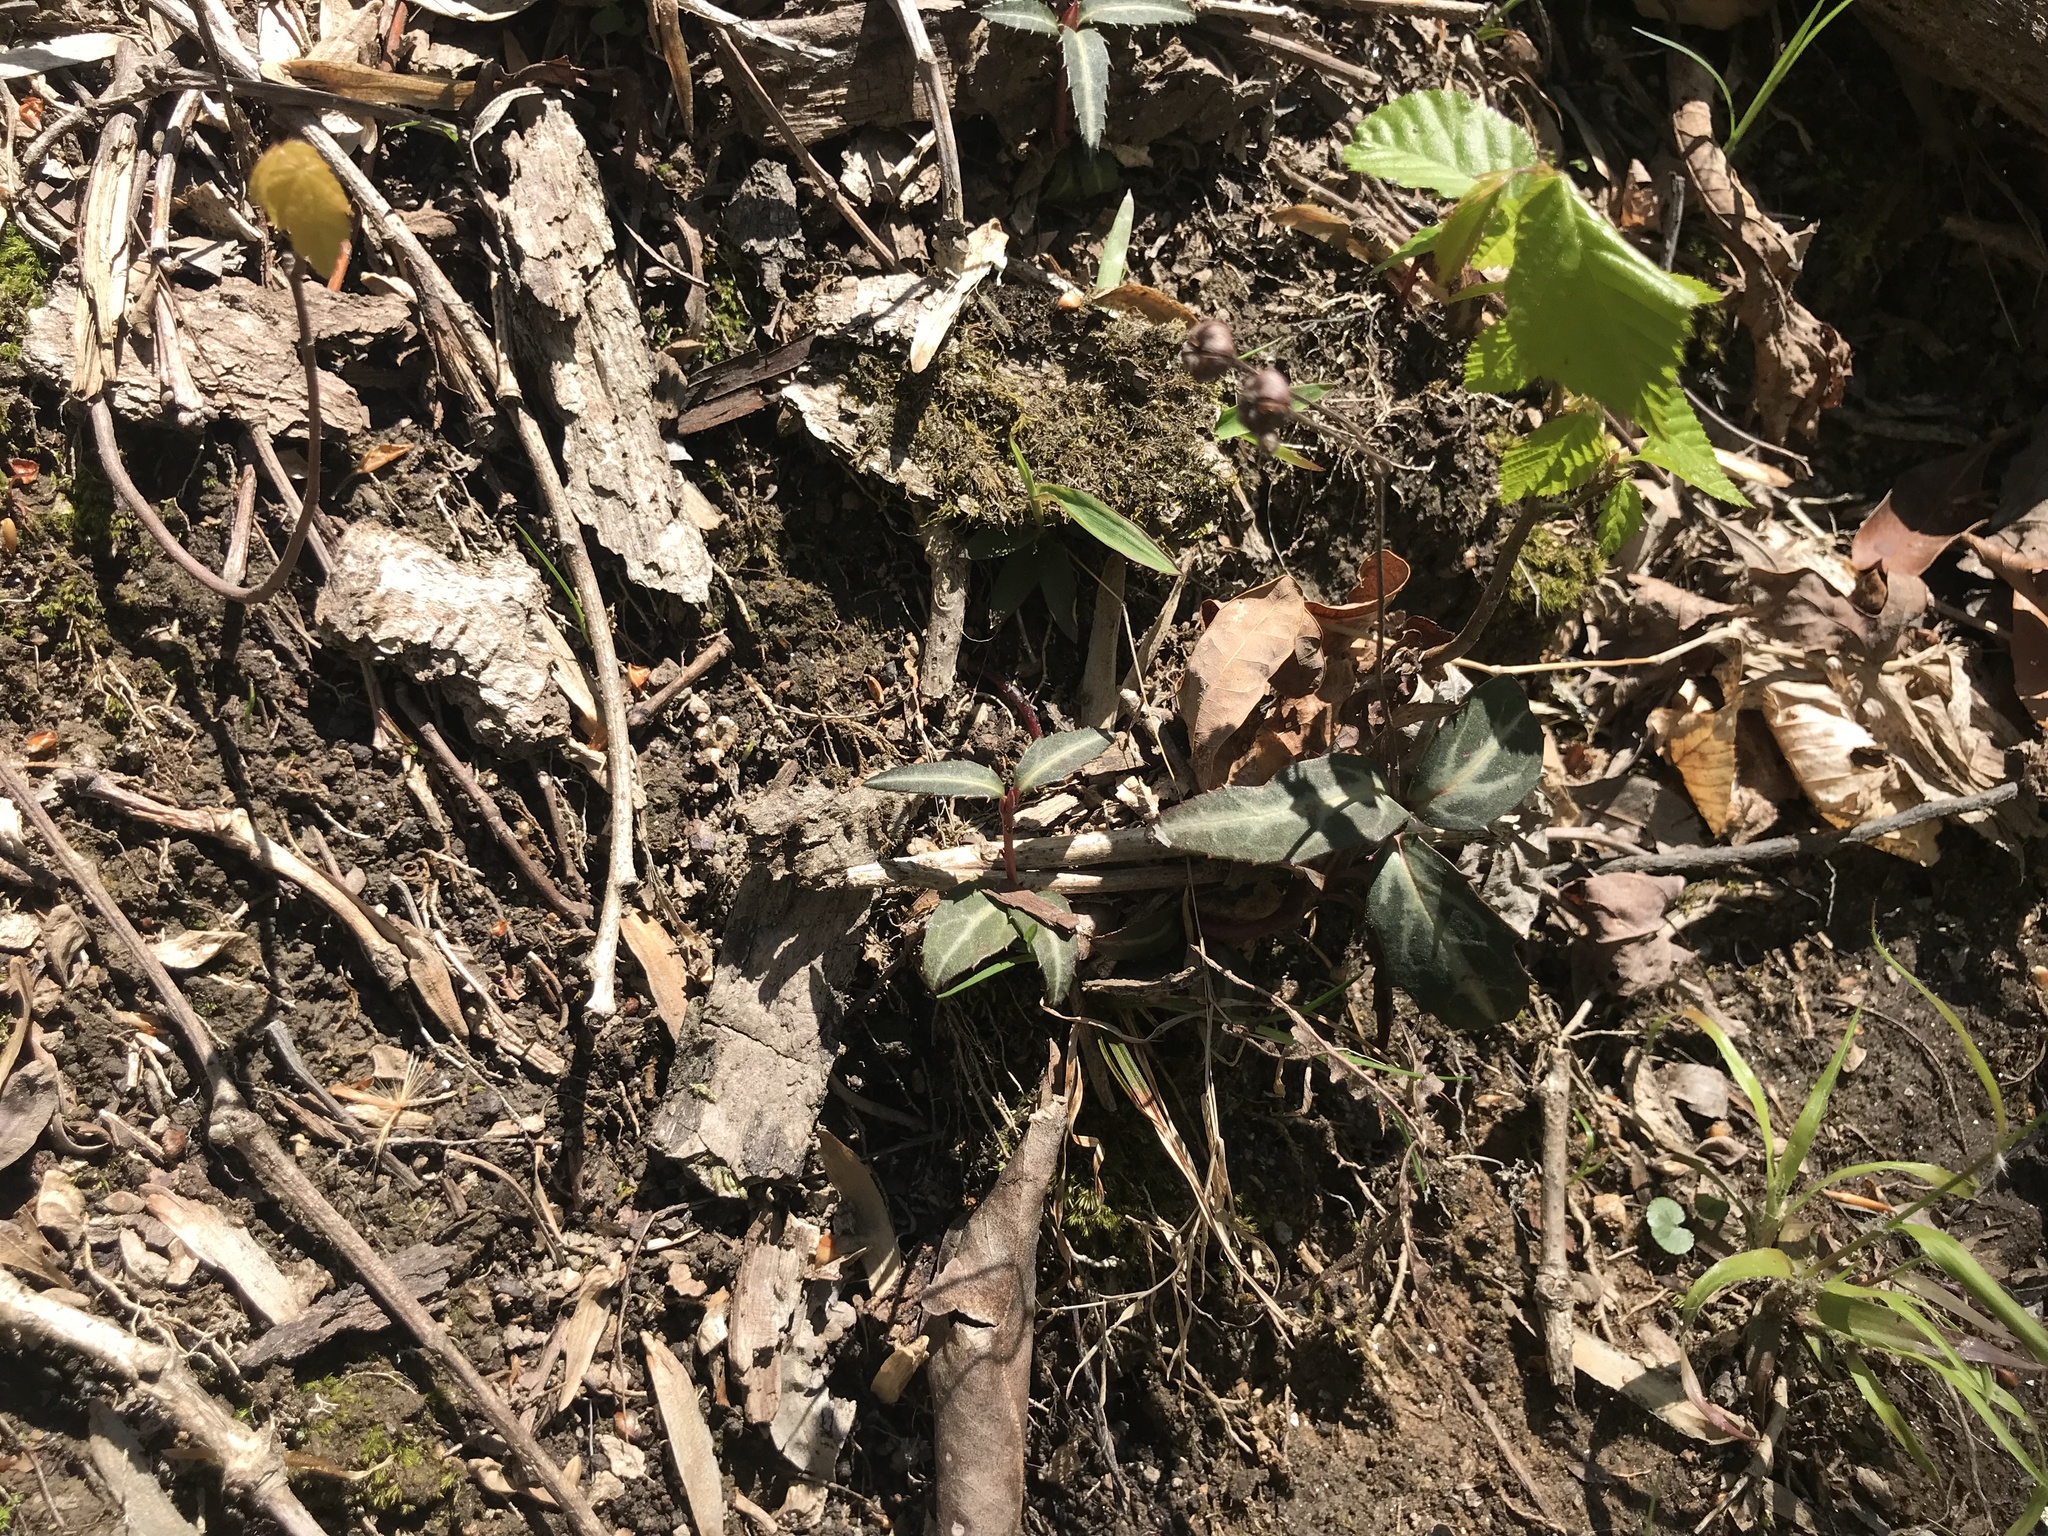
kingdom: Plantae
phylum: Tracheophyta
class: Magnoliopsida
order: Ericales
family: Ericaceae
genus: Chimaphila
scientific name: Chimaphila maculata
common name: Spotted pipsissewa
